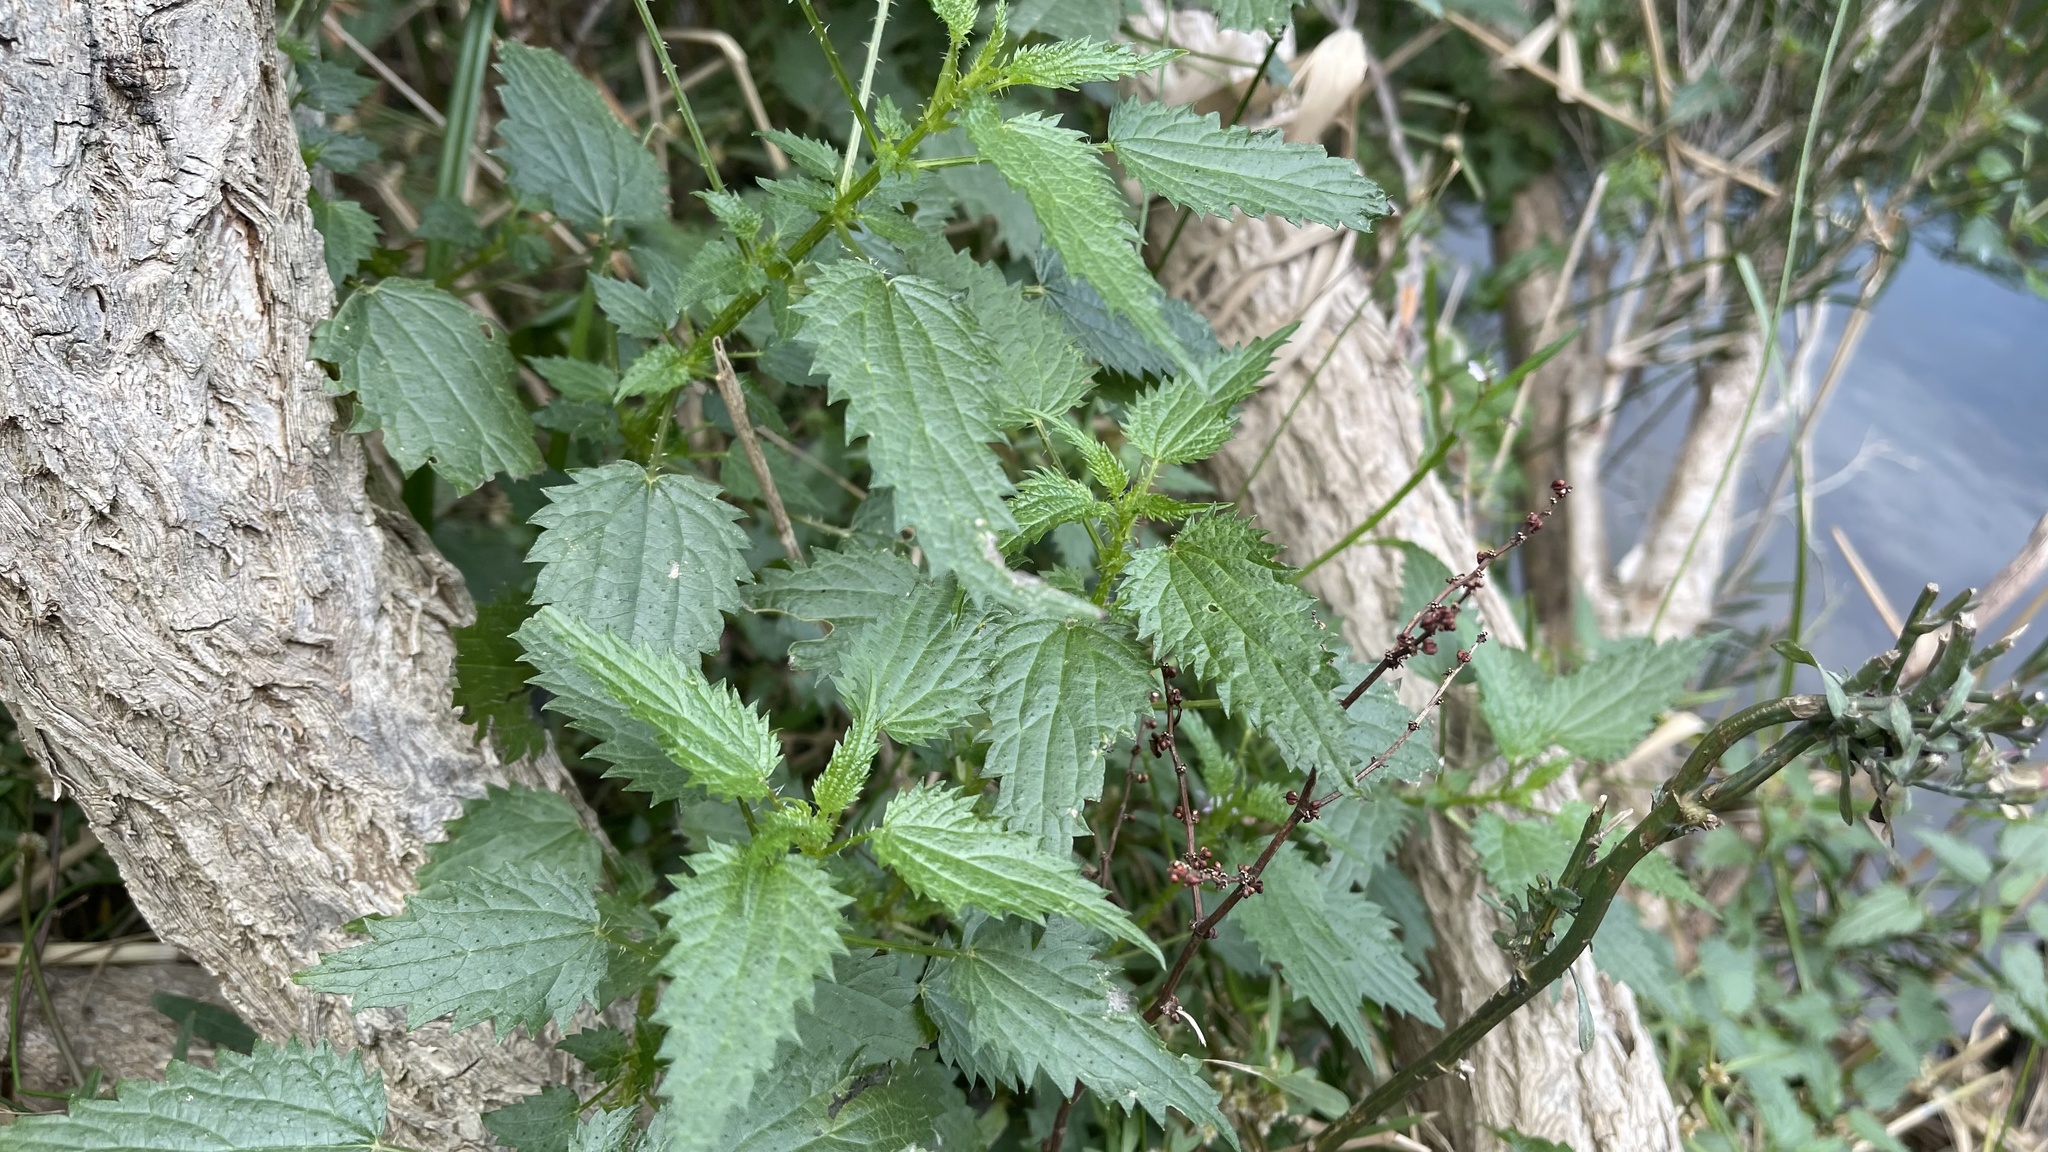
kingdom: Plantae
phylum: Tracheophyta
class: Magnoliopsida
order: Rosales
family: Urticaceae
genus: Urtica
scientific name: Urtica incisa
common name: Scrub nettle
